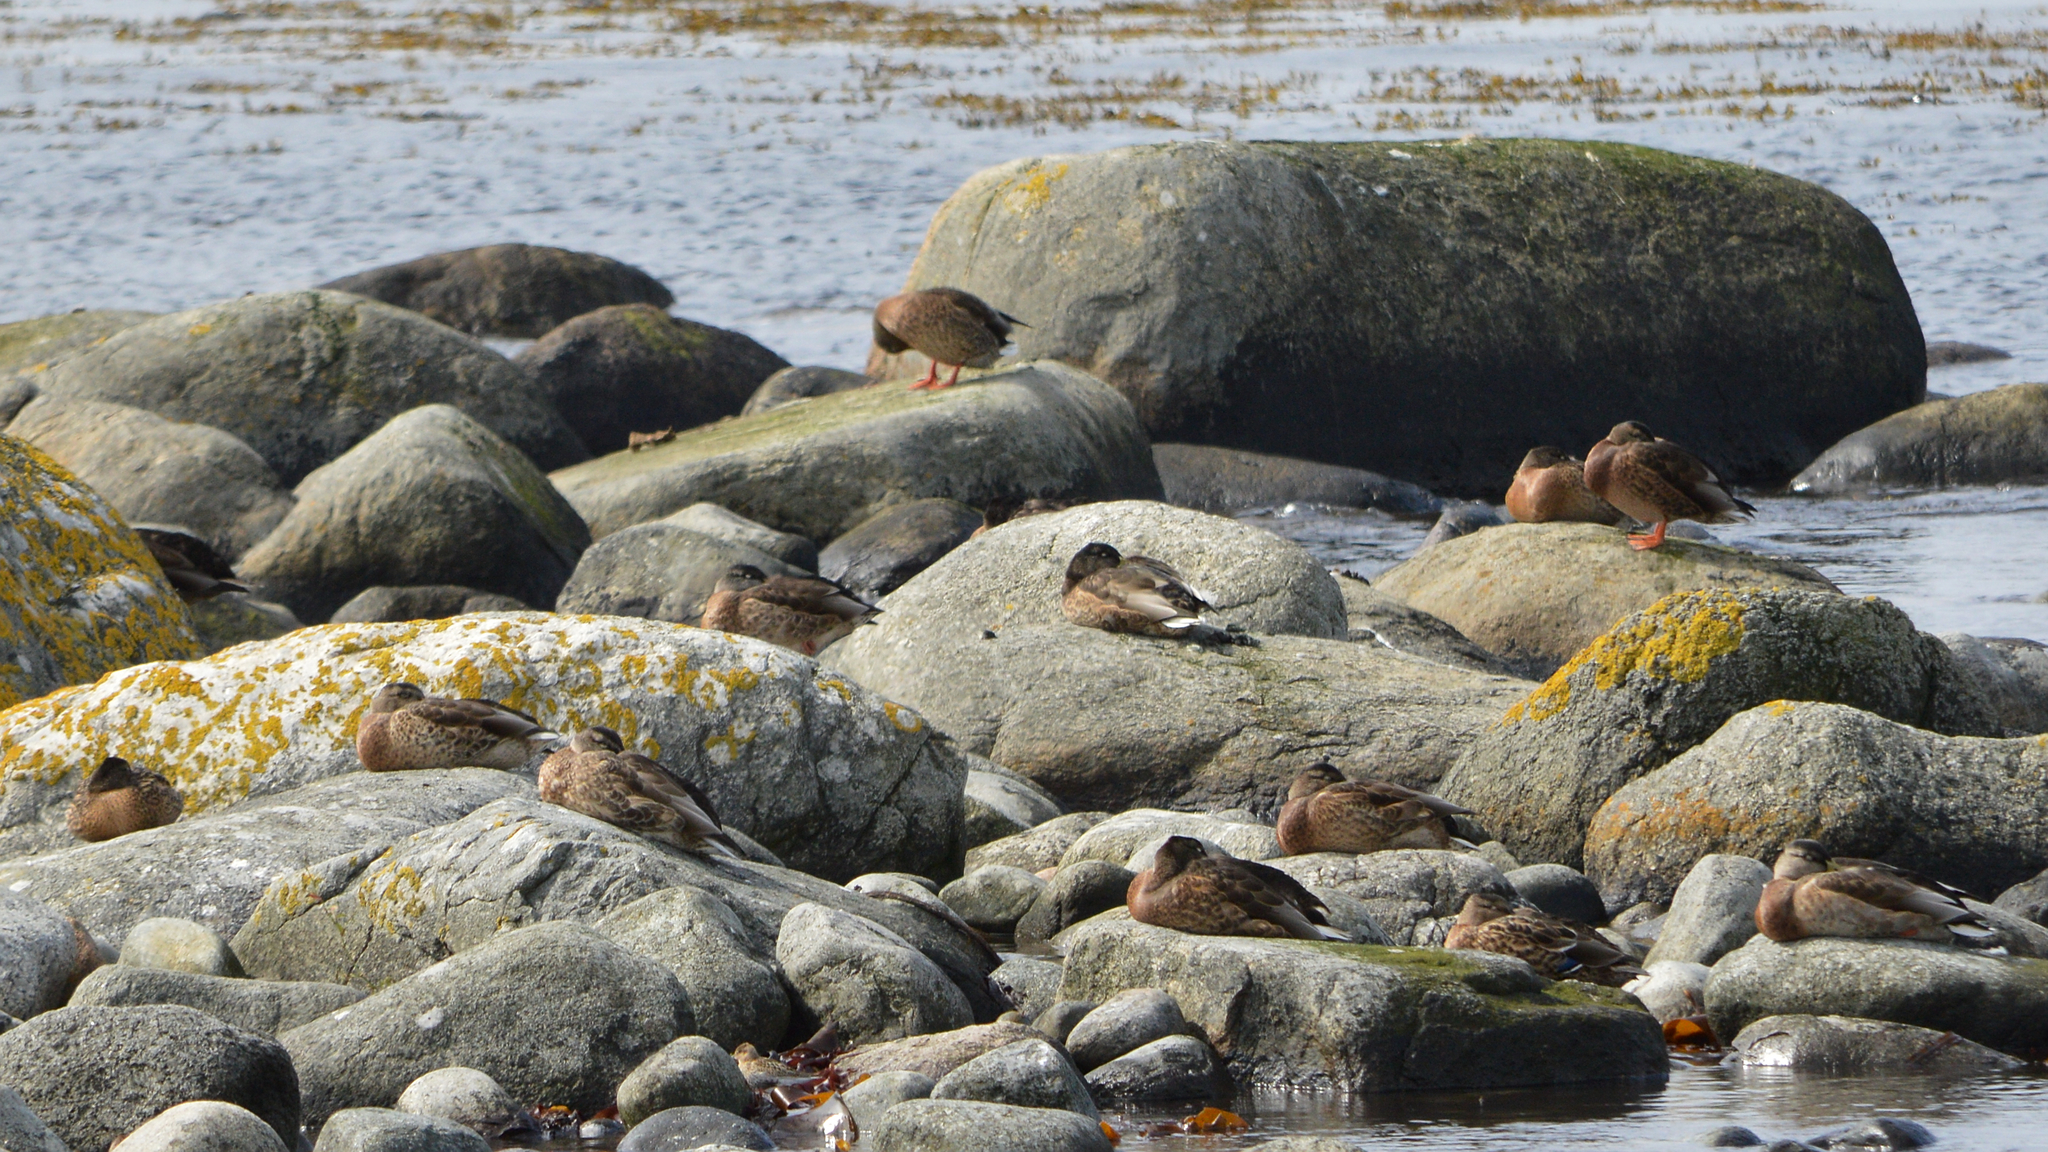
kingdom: Animalia
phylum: Chordata
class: Aves
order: Anseriformes
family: Anatidae
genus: Anas
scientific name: Anas platyrhynchos
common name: Mallard
